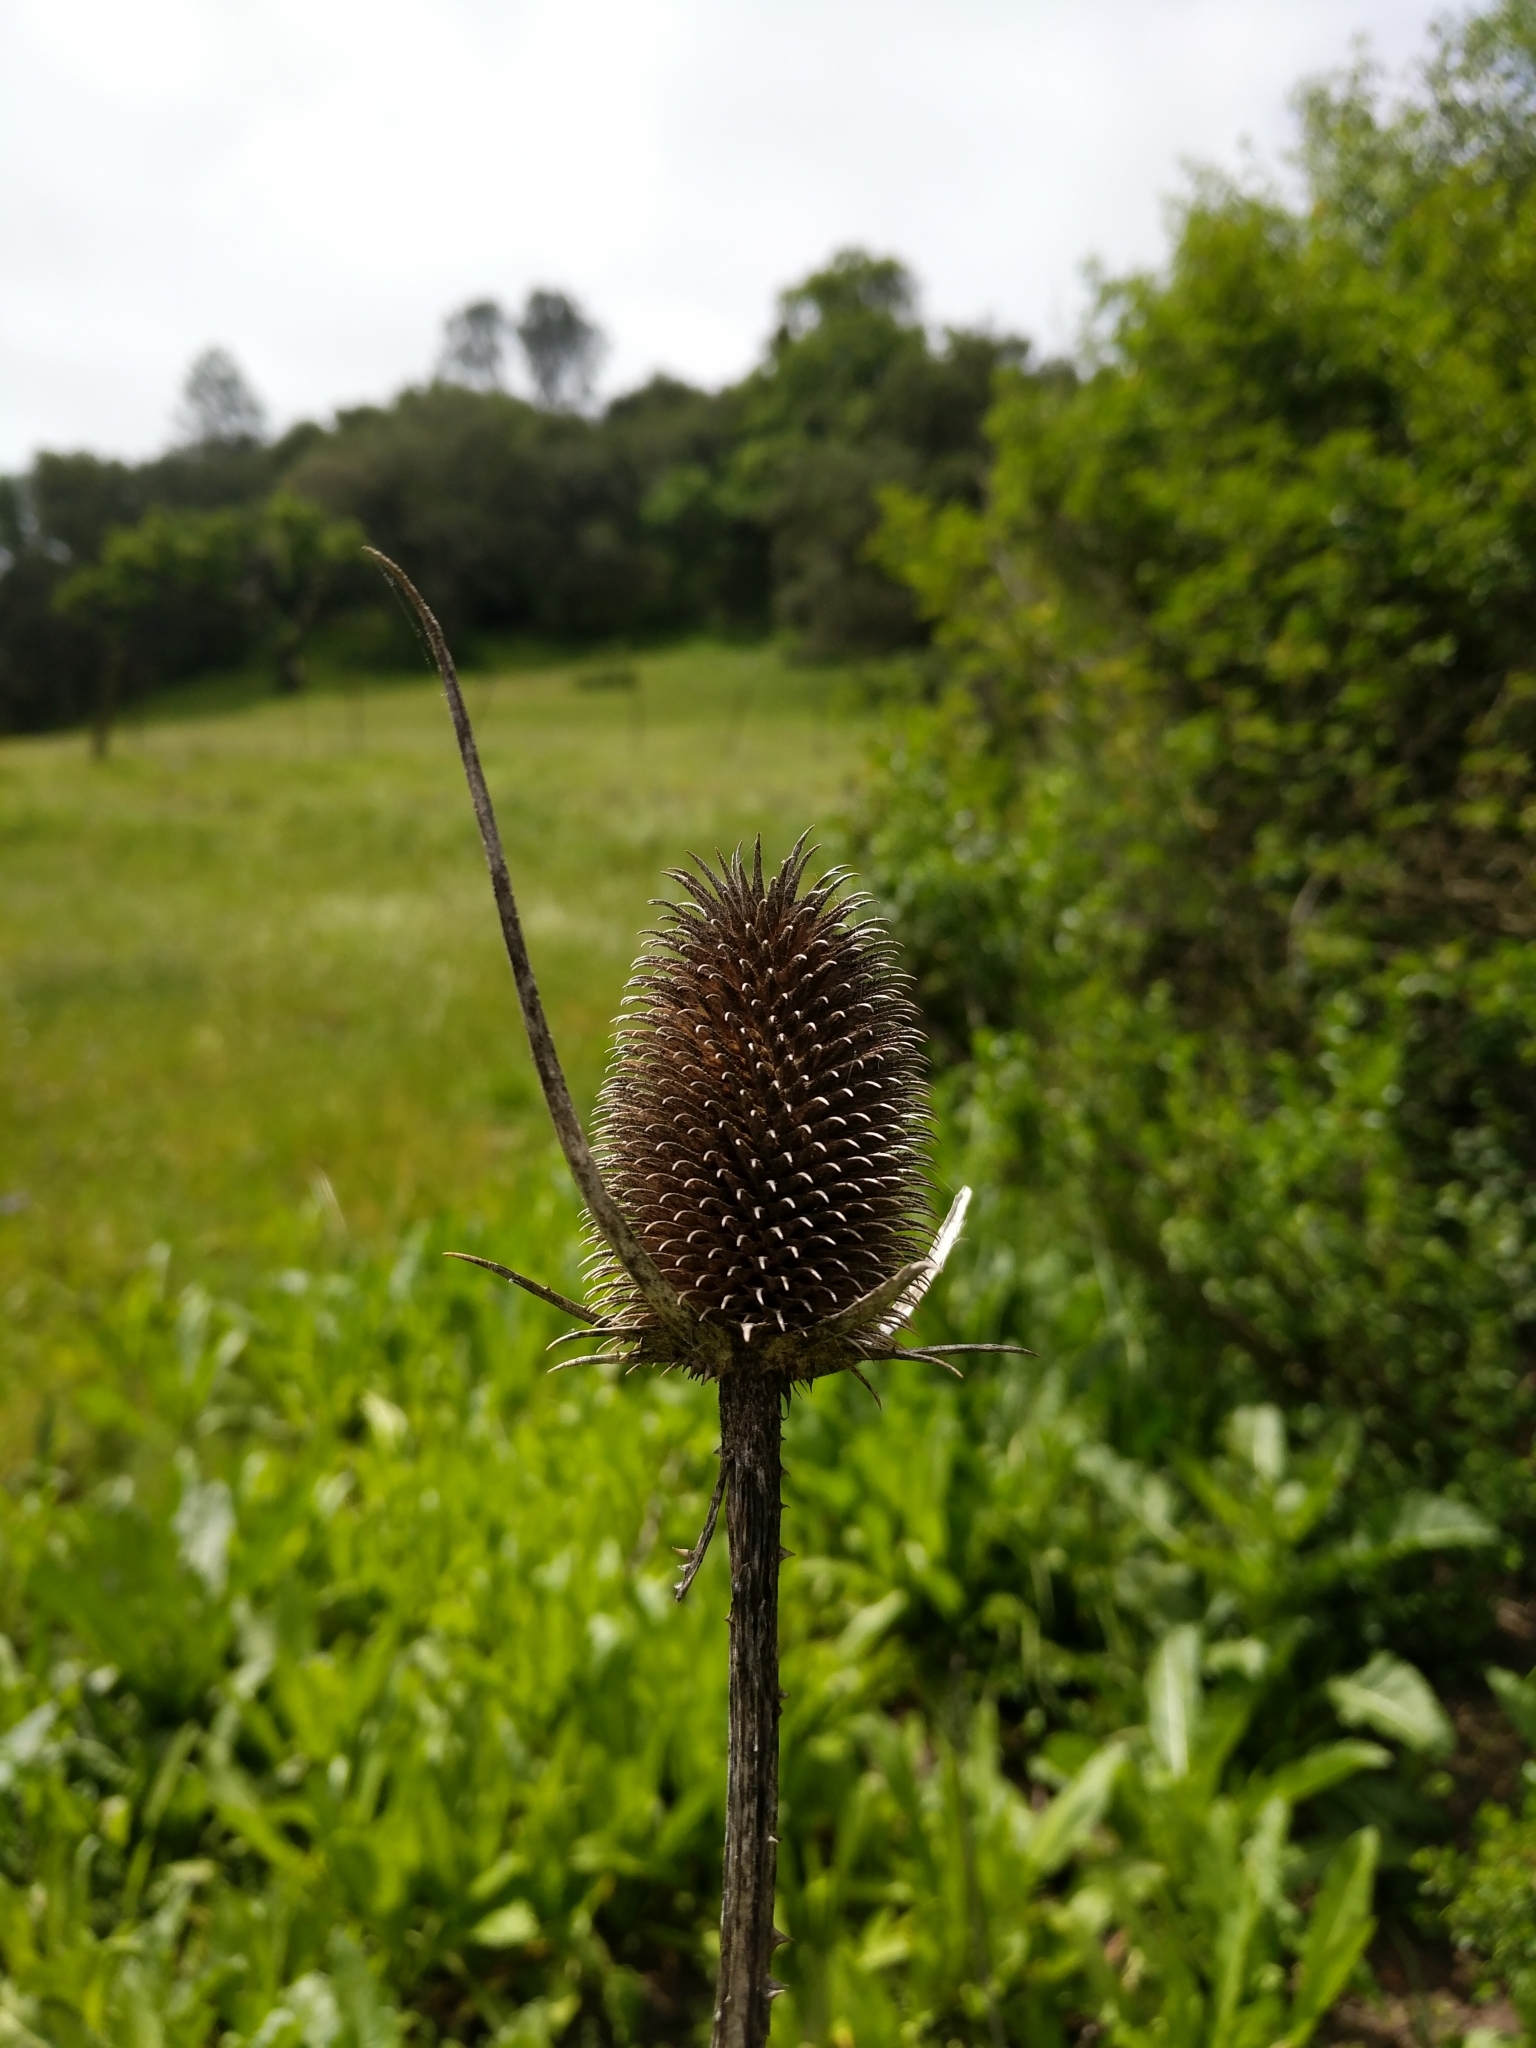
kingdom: Plantae
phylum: Tracheophyta
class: Magnoliopsida
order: Dipsacales
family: Caprifoliaceae
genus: Dipsacus
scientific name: Dipsacus sativus
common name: Fuller's teasel
